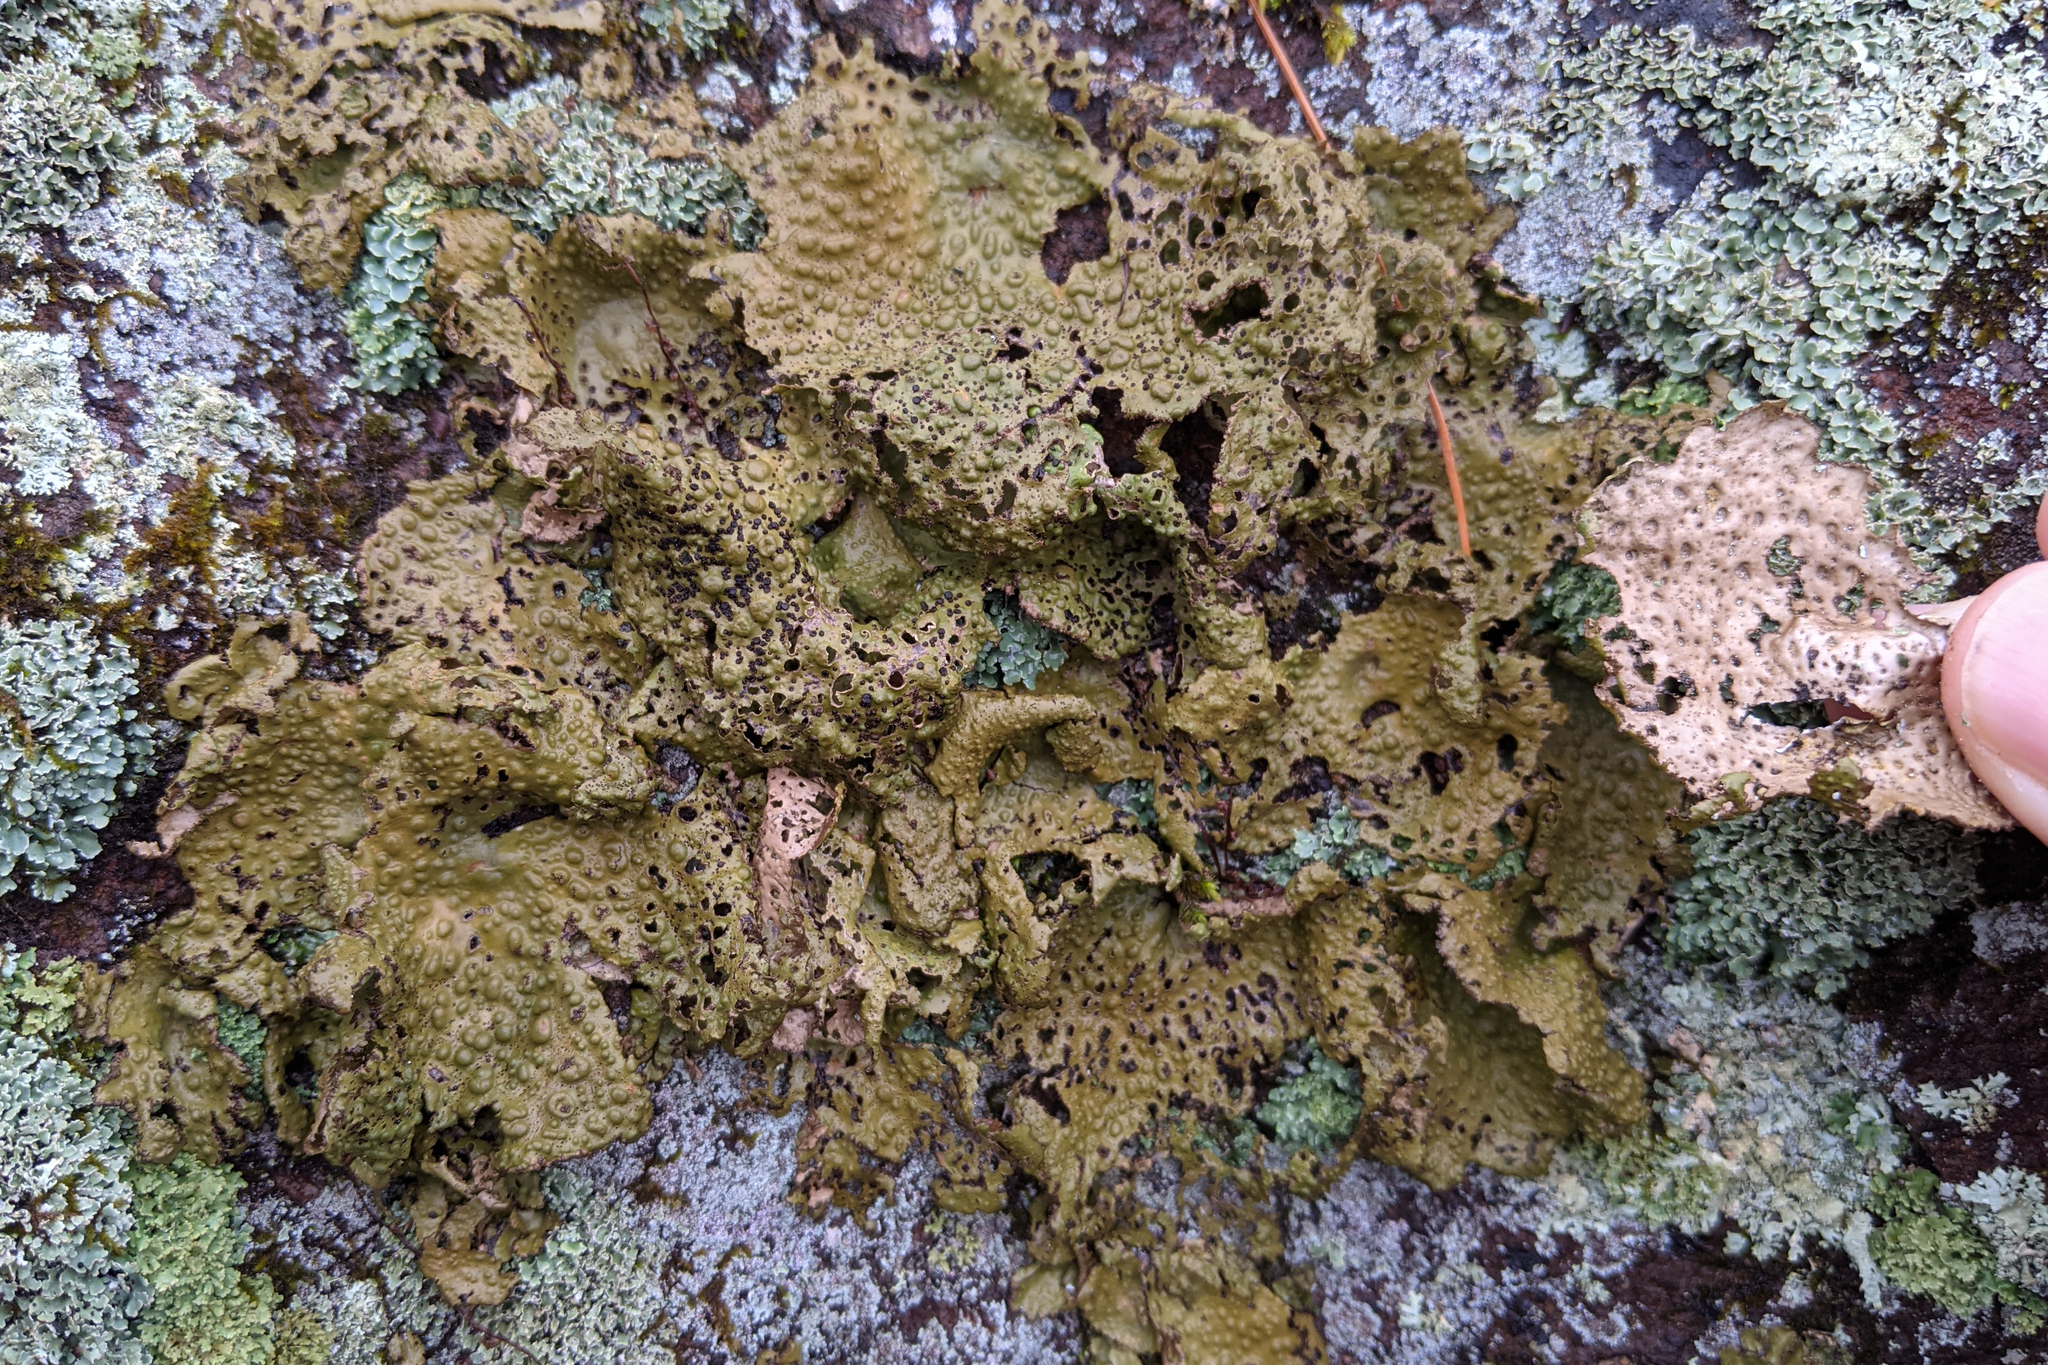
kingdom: Fungi
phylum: Ascomycota
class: Lecanoromycetes
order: Umbilicariales
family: Umbilicariaceae
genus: Lasallia
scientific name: Lasallia papulosa
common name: Common toadskin lichen
